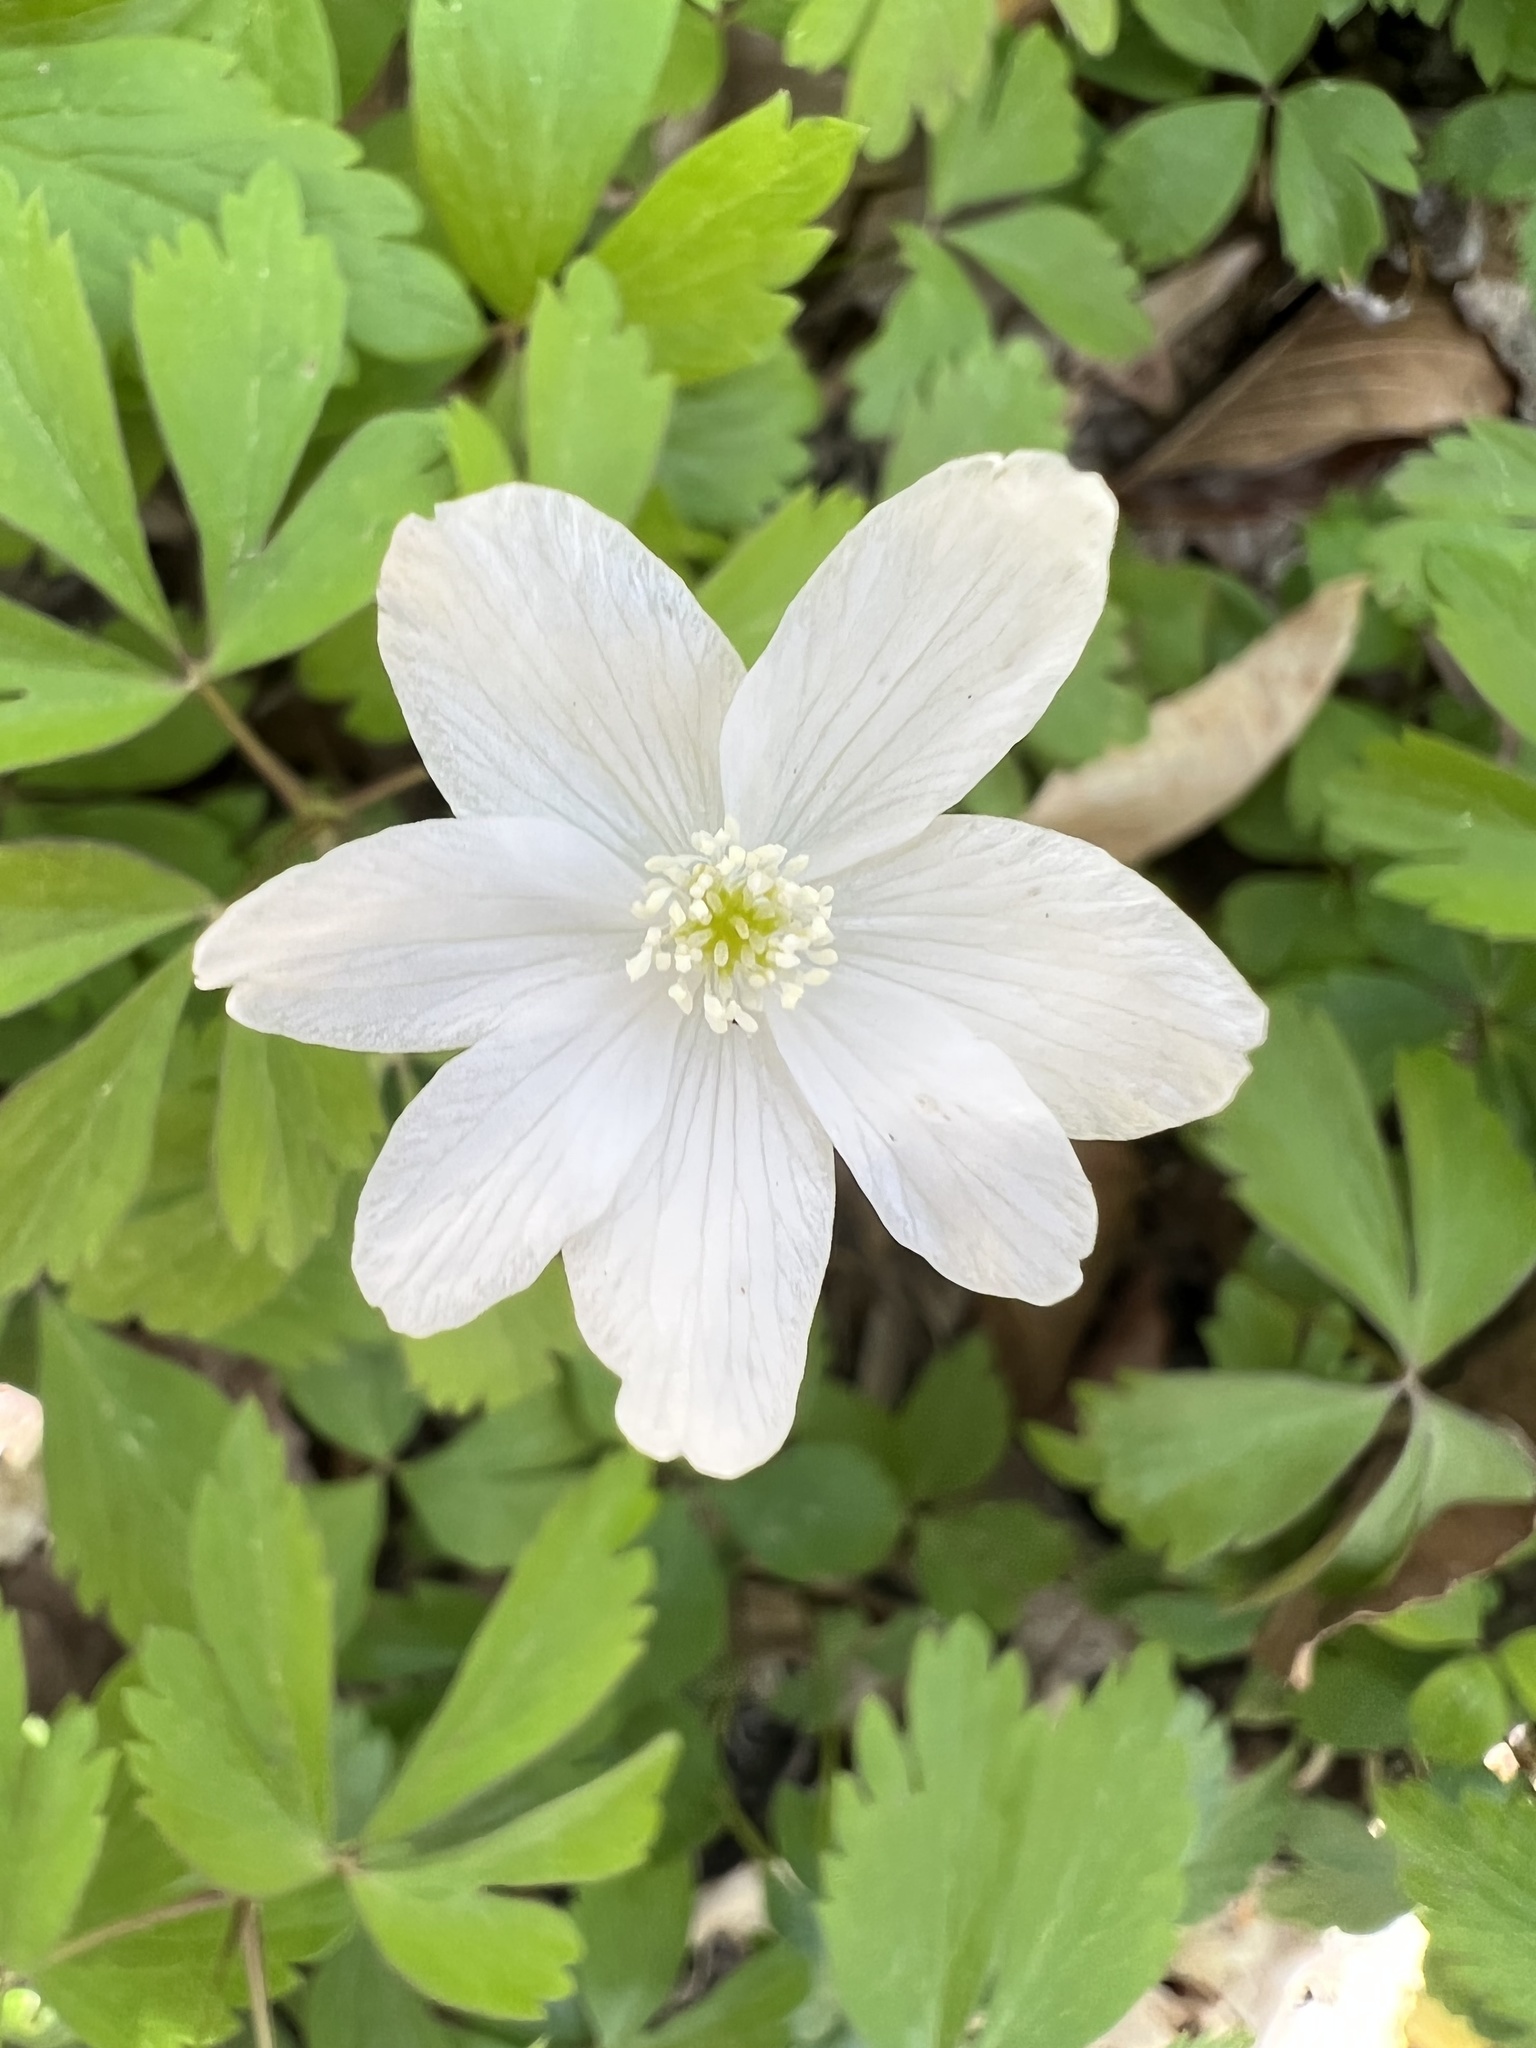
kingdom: Plantae
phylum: Tracheophyta
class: Magnoliopsida
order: Ranunculales
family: Ranunculaceae
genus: Anemone
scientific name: Anemone quinquefolia
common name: Wood anemone
